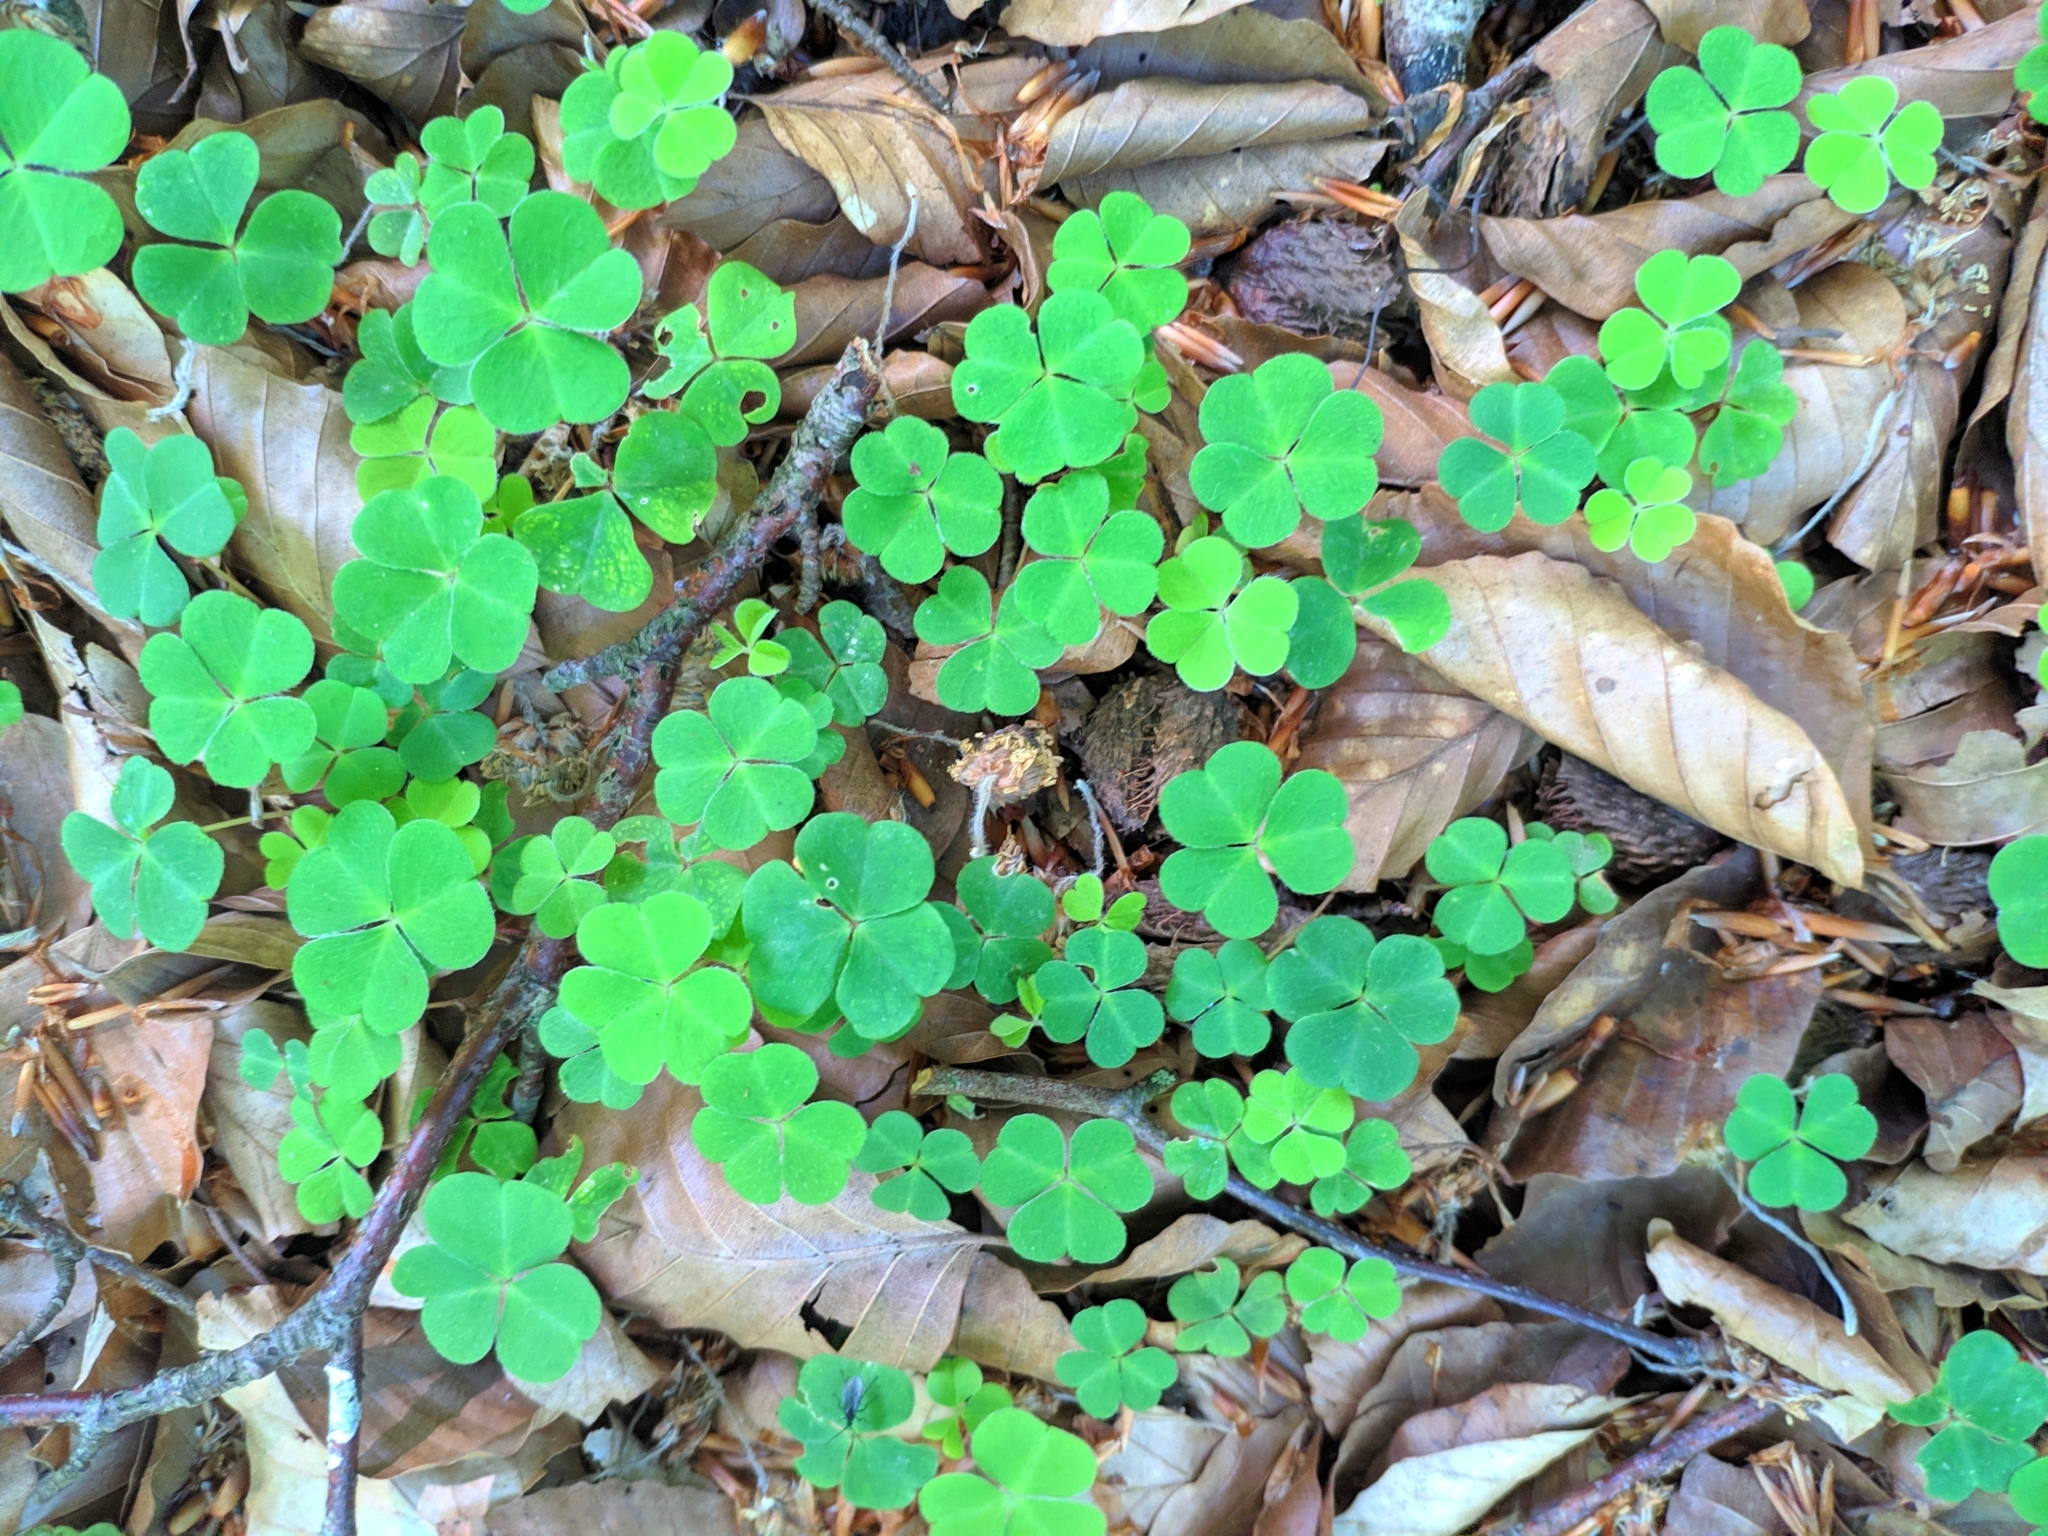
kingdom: Plantae
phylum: Tracheophyta
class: Magnoliopsida
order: Oxalidales
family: Oxalidaceae
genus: Oxalis
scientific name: Oxalis acetosella
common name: Wood-sorrel
